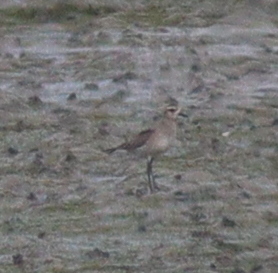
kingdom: Animalia
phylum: Chordata
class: Aves
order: Charadriiformes
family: Charadriidae
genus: Pluvialis
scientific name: Pluvialis dominica
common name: American golden plover
